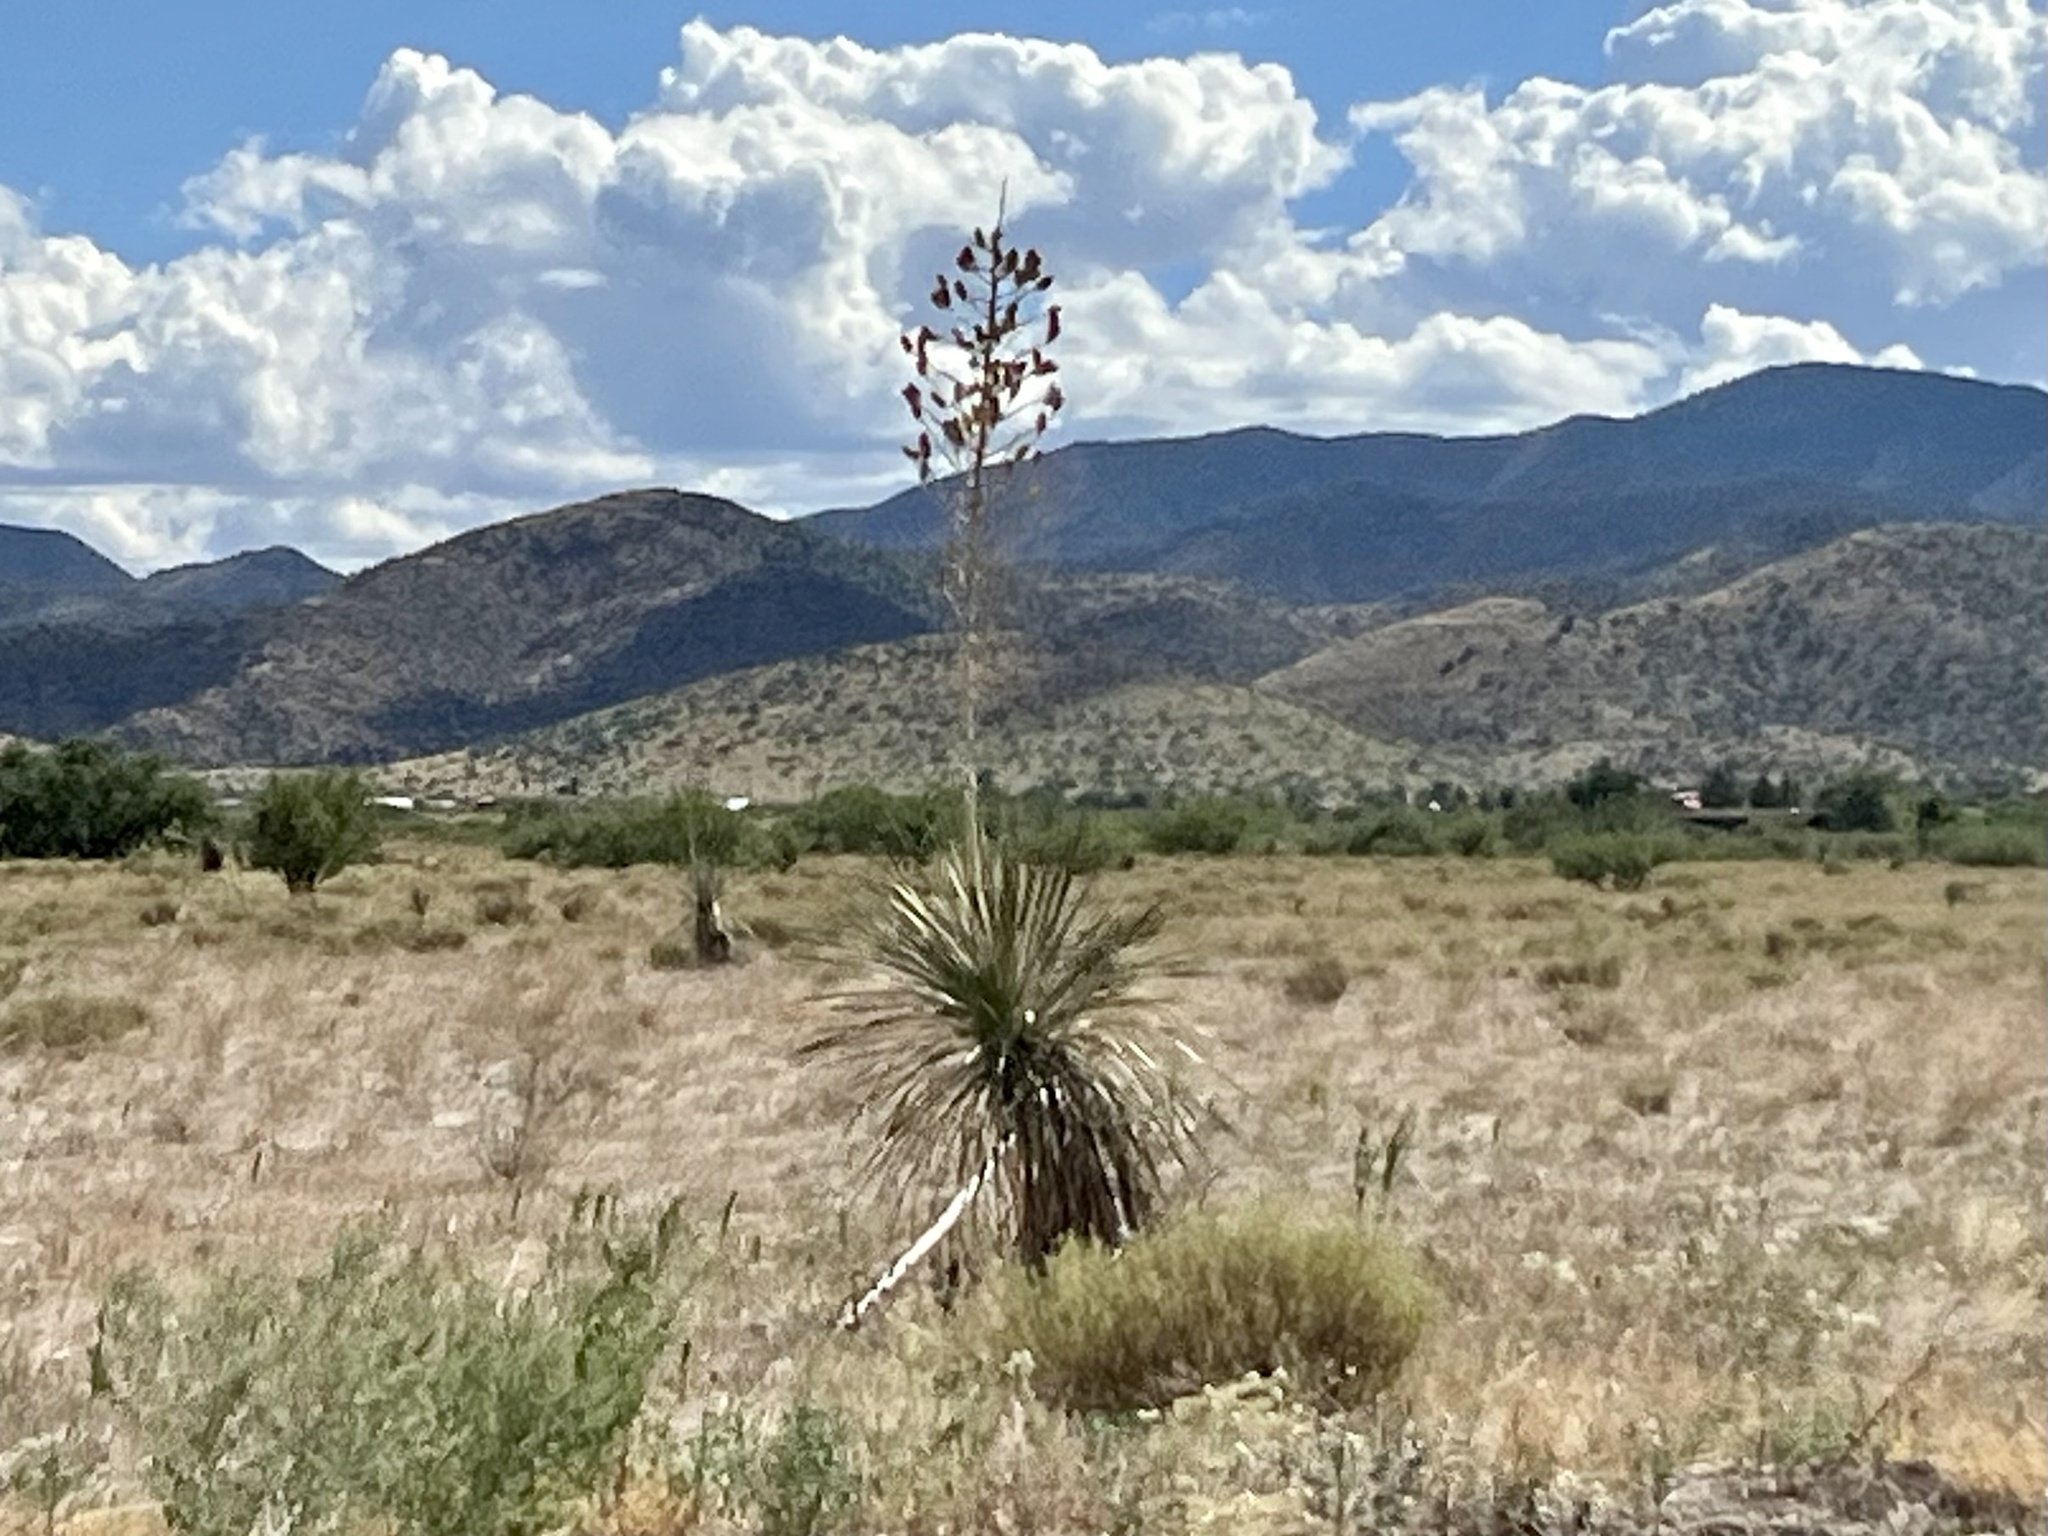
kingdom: Plantae
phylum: Tracheophyta
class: Liliopsida
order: Asparagales
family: Asparagaceae
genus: Yucca
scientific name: Yucca elata
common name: Palmella
